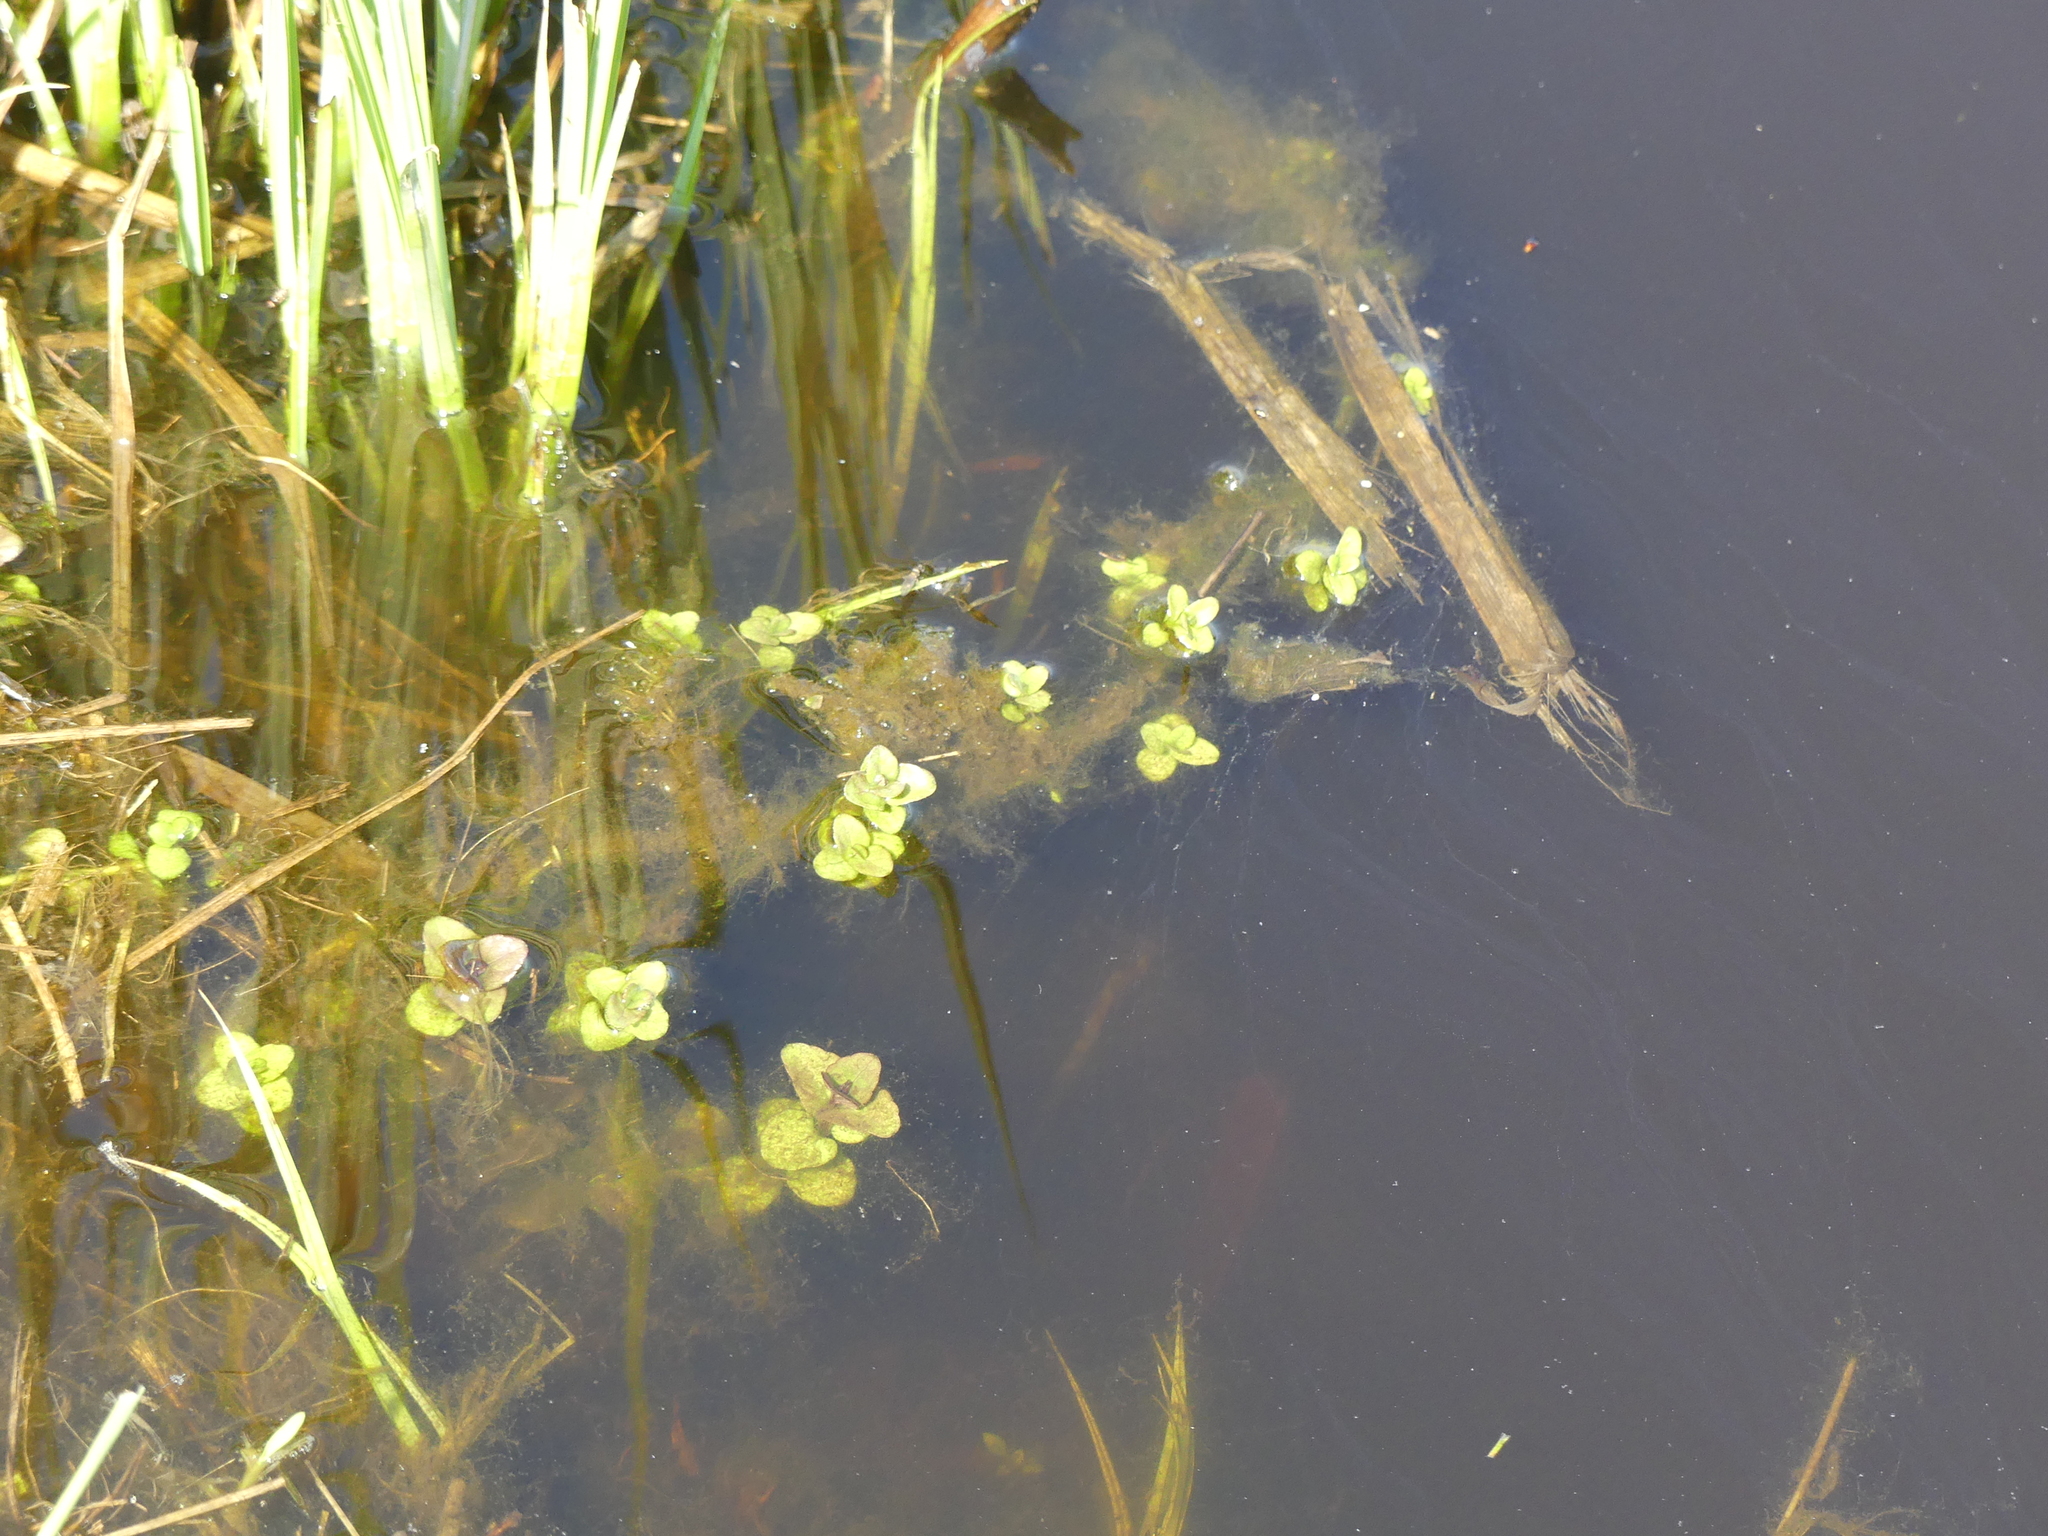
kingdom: Plantae
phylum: Tracheophyta
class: Magnoliopsida
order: Lamiales
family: Lamiaceae
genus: Mentha
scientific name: Mentha aquatica
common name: Water mint
